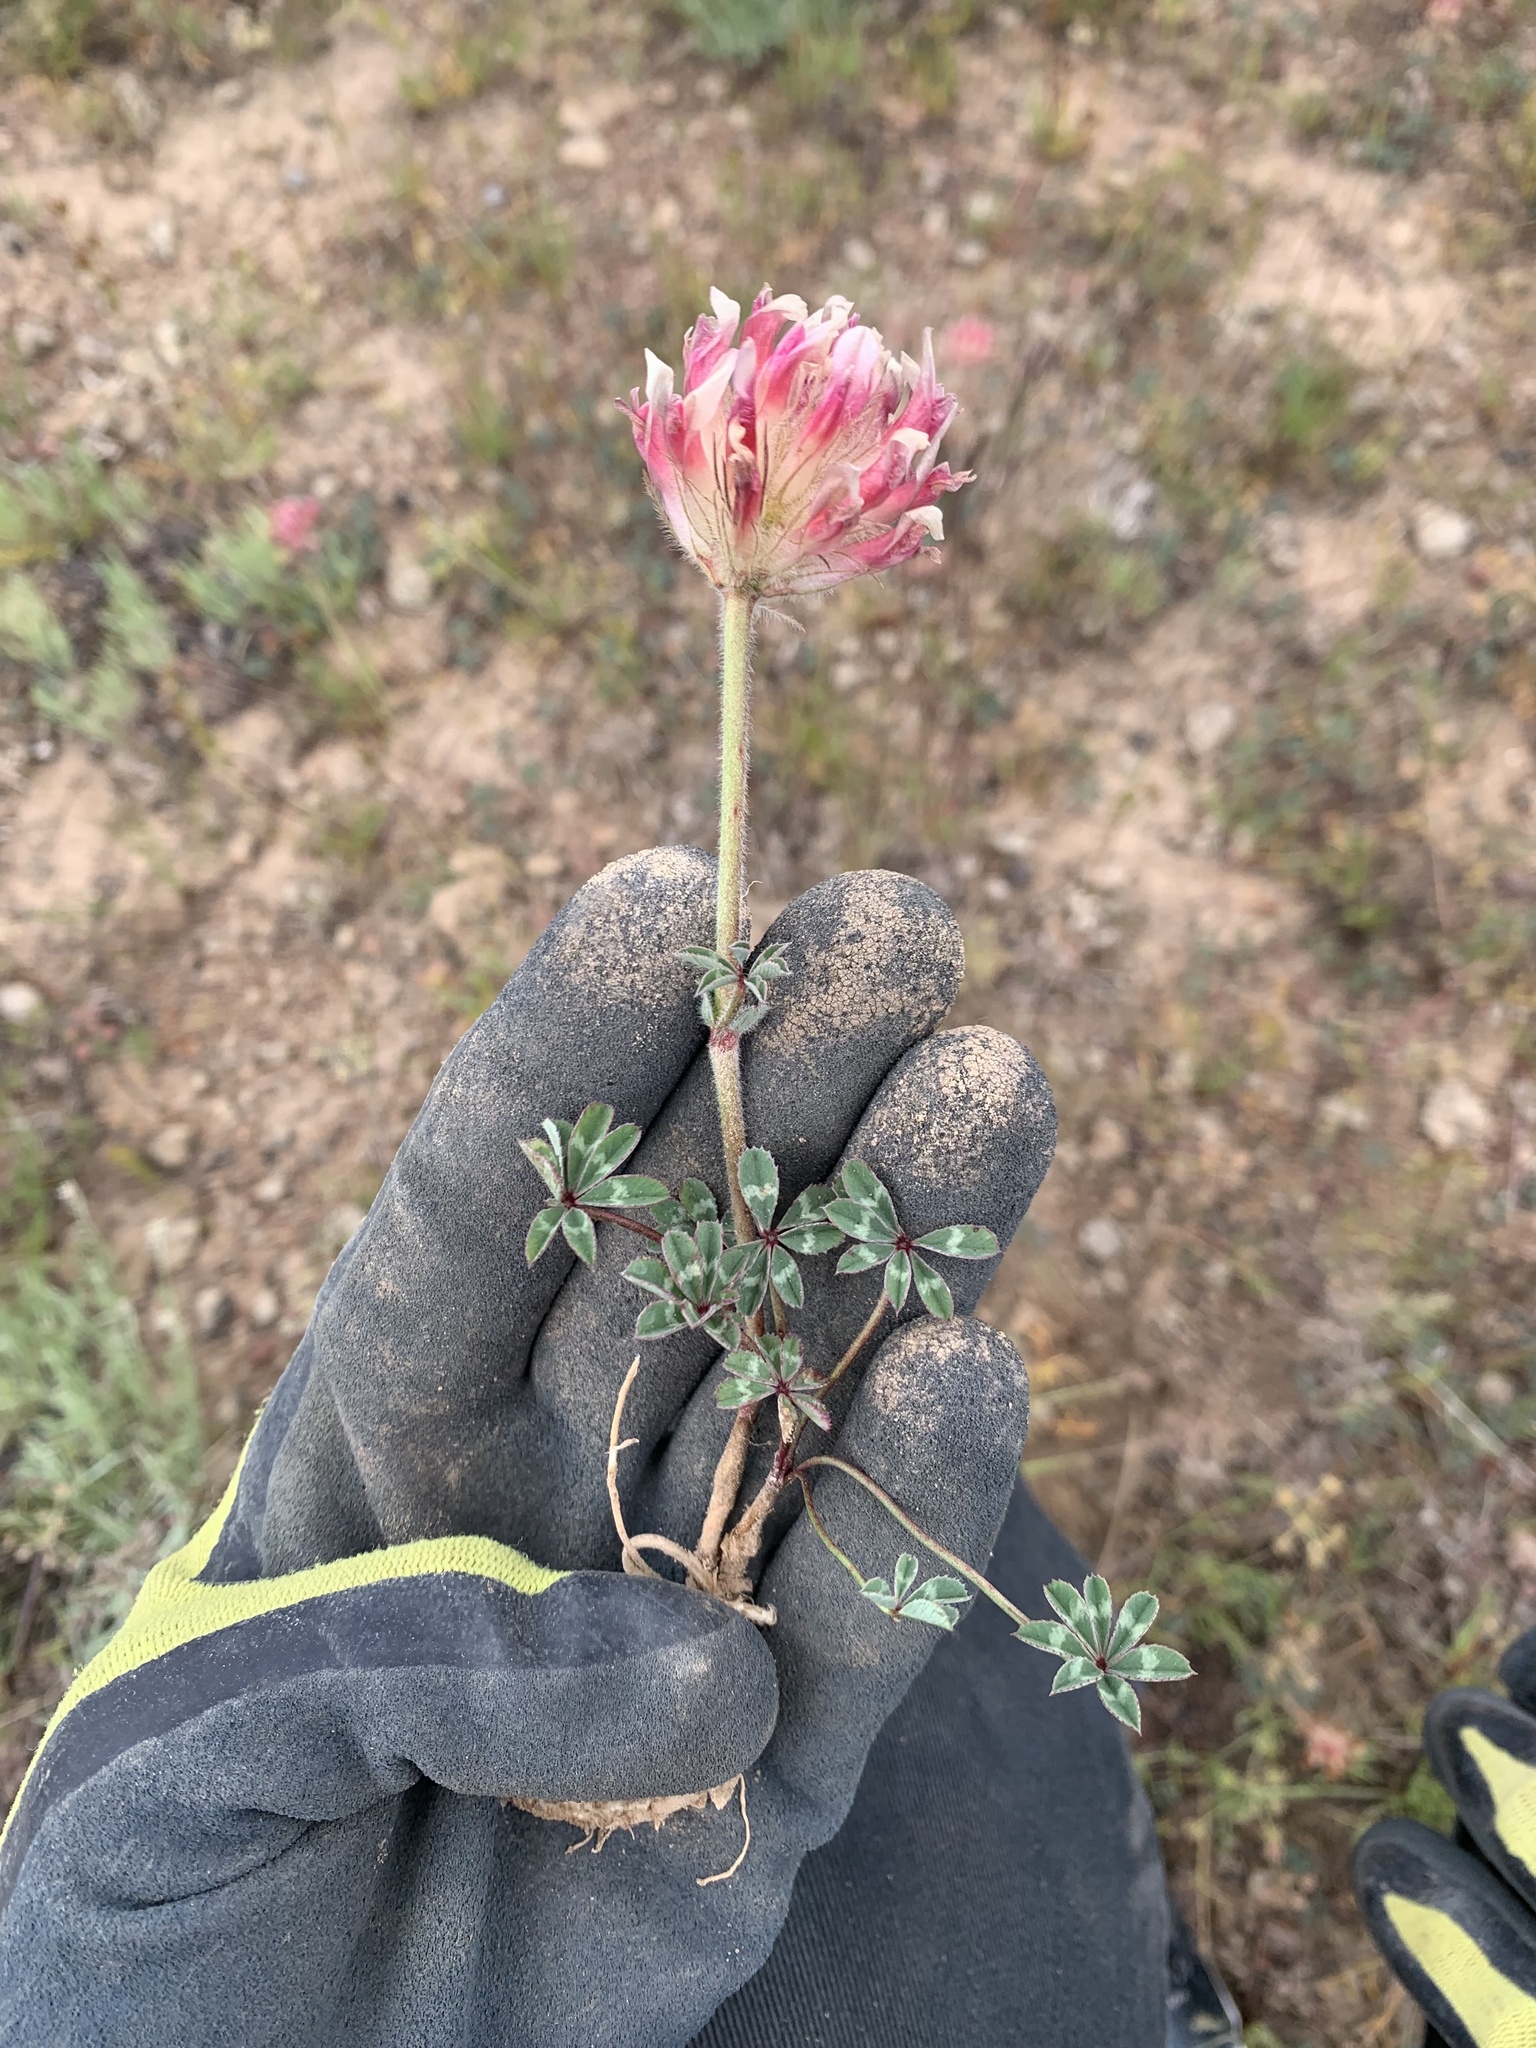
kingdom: Plantae
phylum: Tracheophyta
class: Magnoliopsida
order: Fabales
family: Fabaceae
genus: Trifolium
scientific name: Trifolium macrocephalum
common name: Large-head clover
